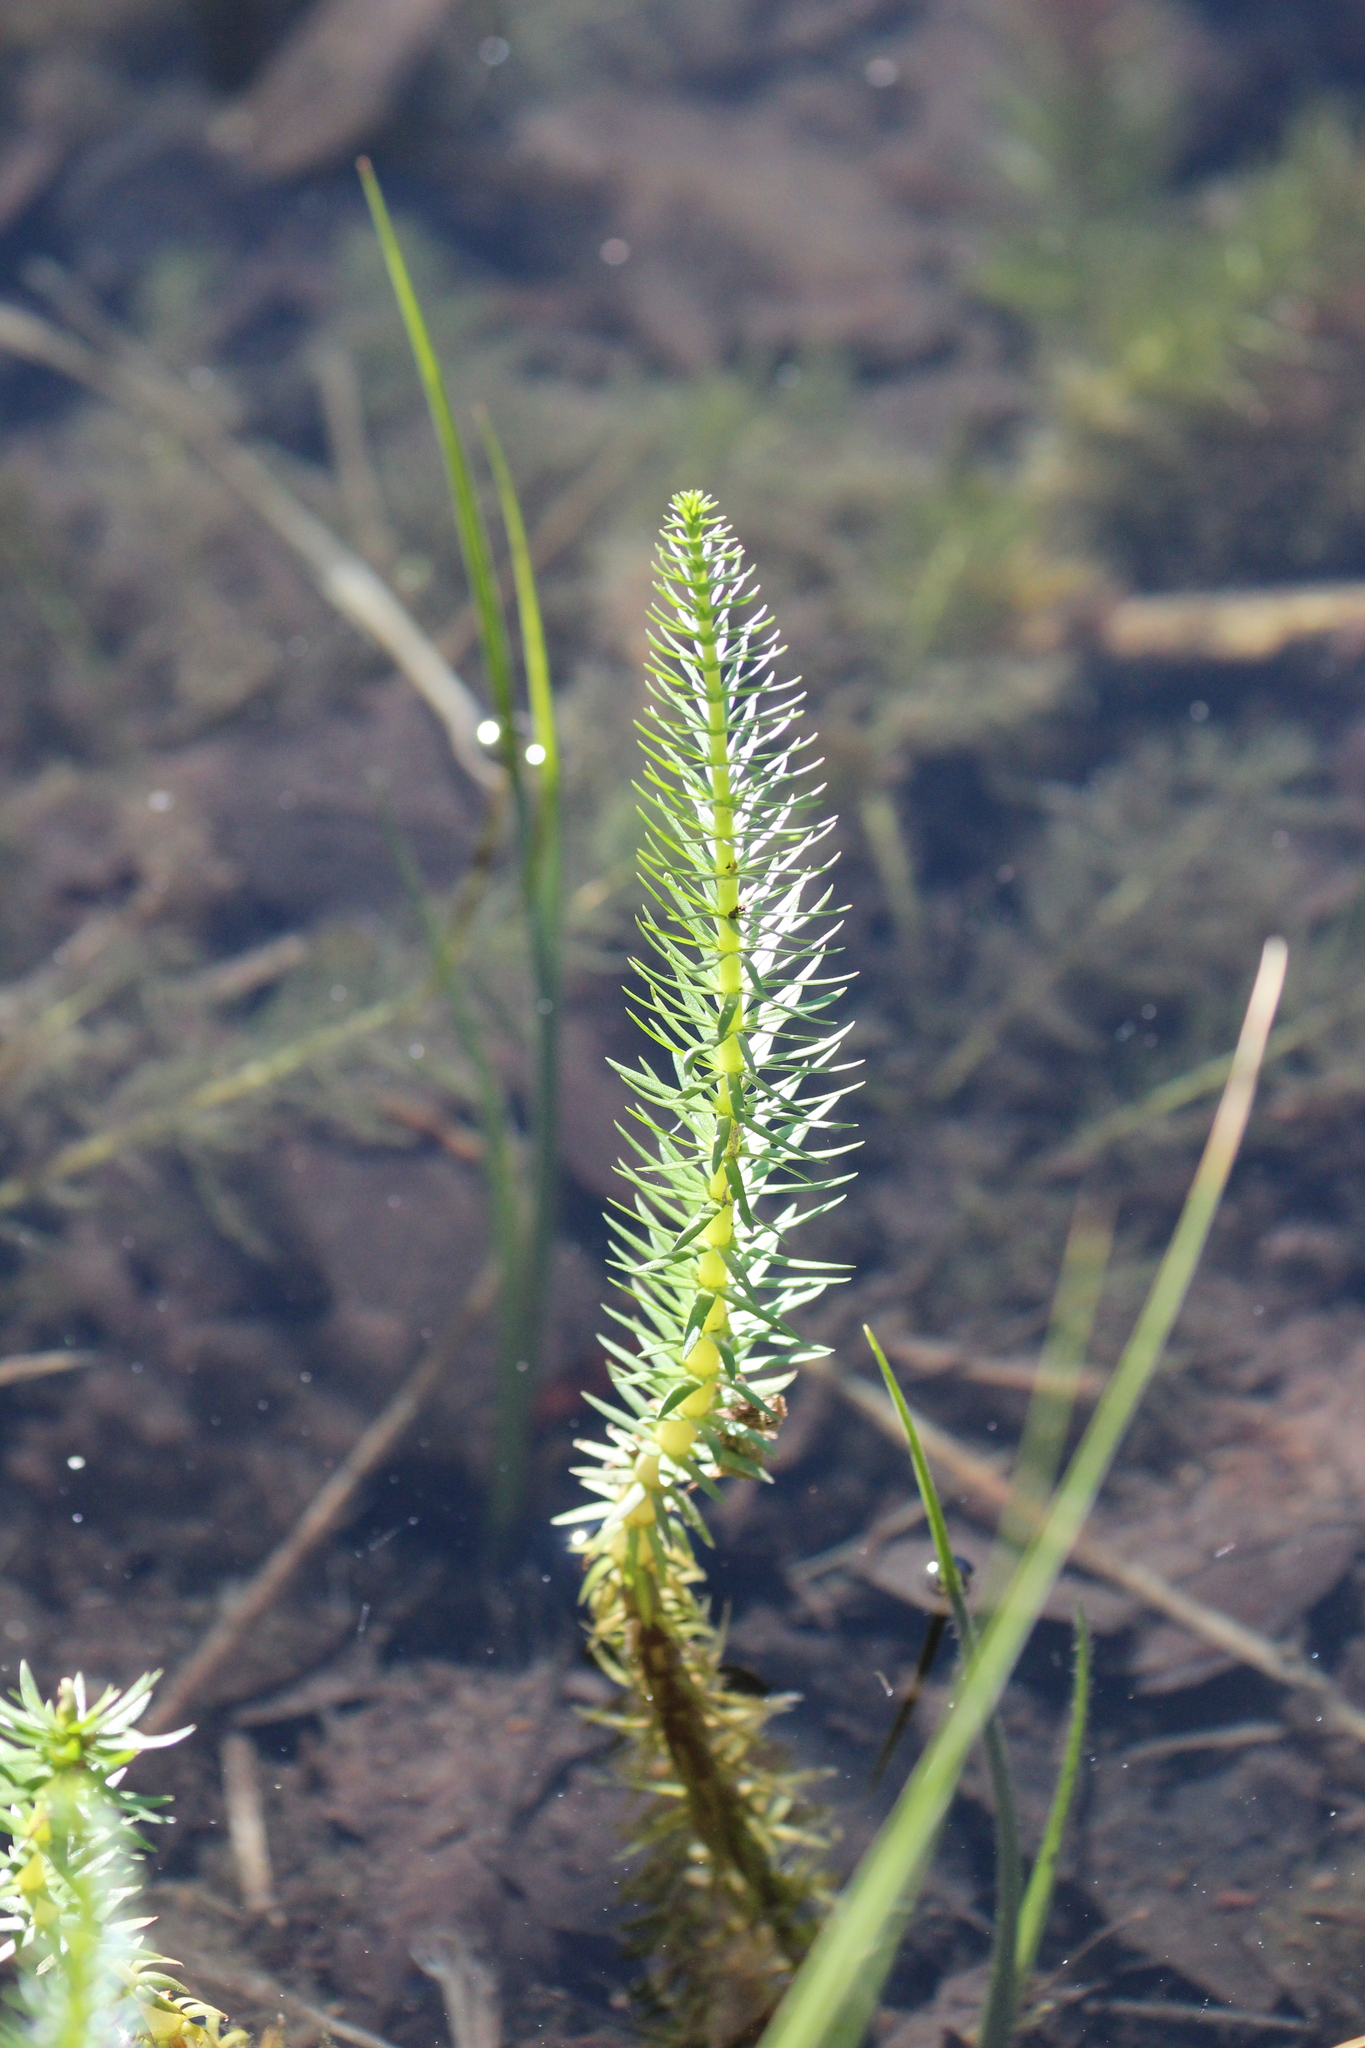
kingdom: Plantae
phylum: Tracheophyta
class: Magnoliopsida
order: Lamiales
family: Plantaginaceae
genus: Hippuris
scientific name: Hippuris vulgaris
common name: Mare's-tail
